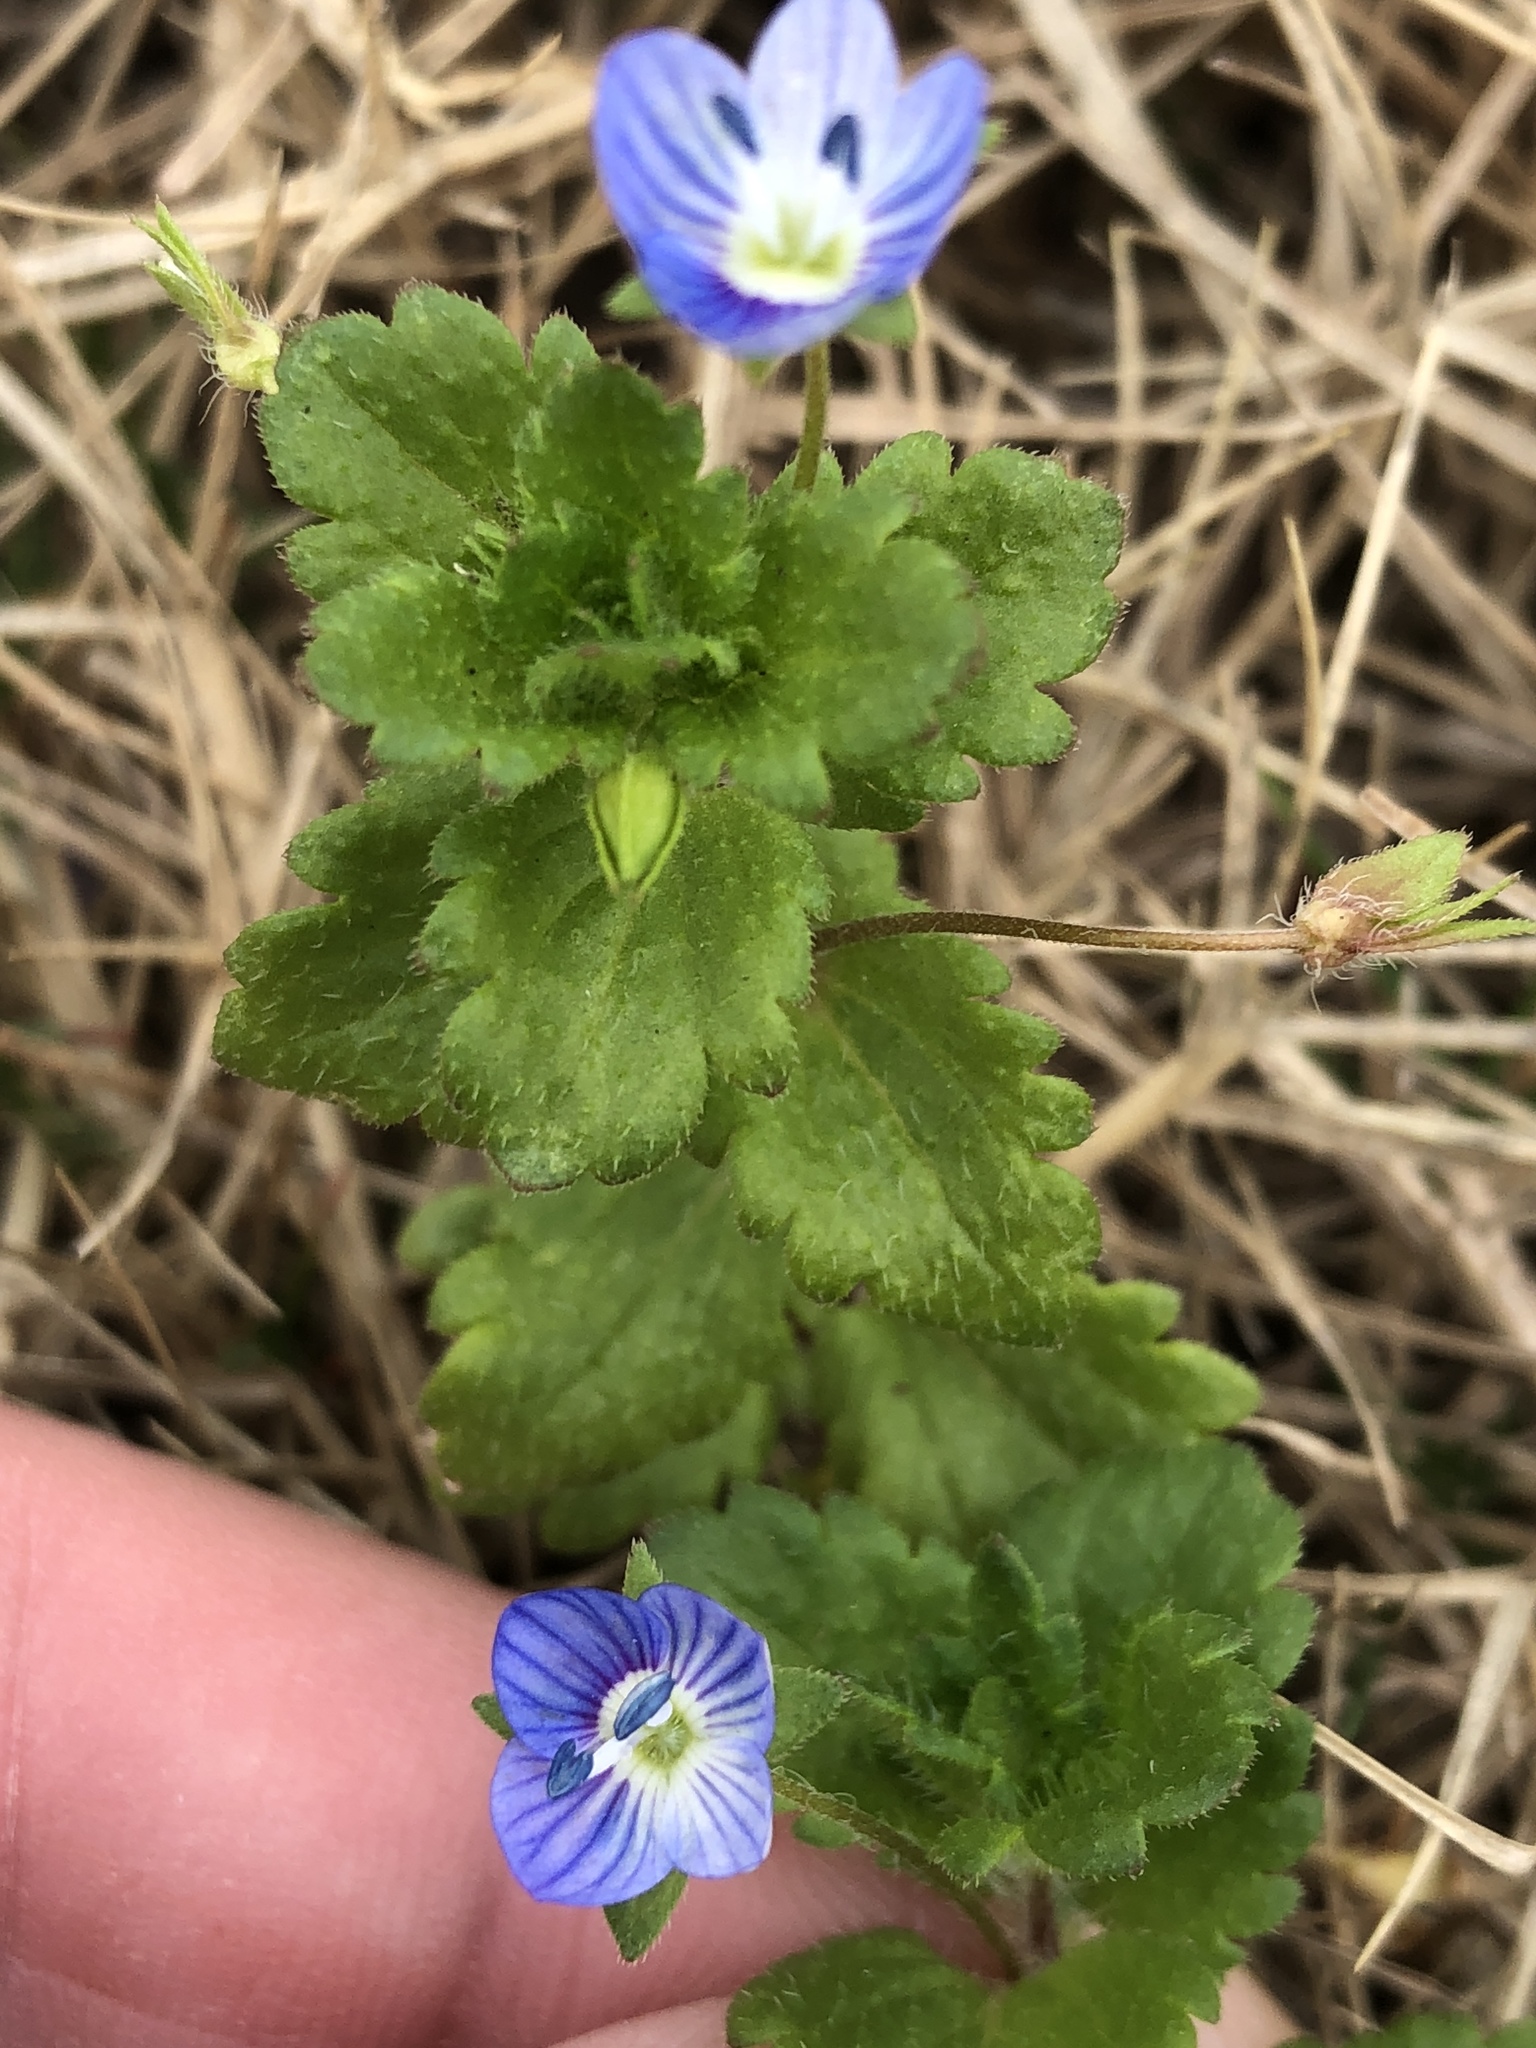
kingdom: Plantae
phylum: Tracheophyta
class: Magnoliopsida
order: Lamiales
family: Plantaginaceae
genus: Veronica
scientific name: Veronica persica
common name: Common field-speedwell
